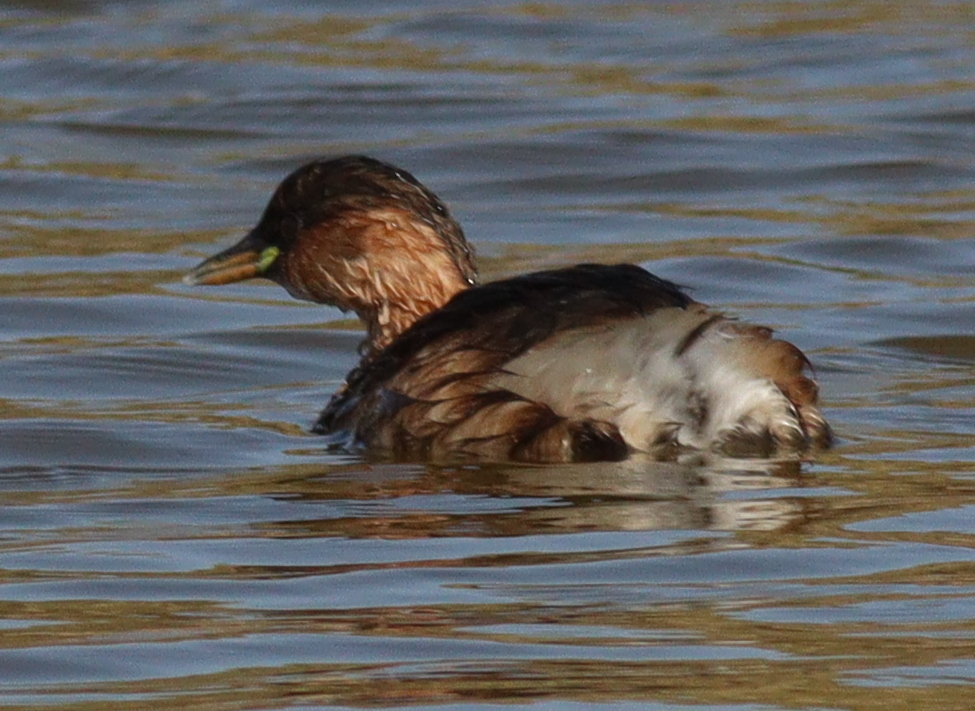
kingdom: Animalia
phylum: Chordata
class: Aves
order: Podicipediformes
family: Podicipedidae
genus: Tachybaptus
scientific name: Tachybaptus ruficollis
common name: Little grebe
